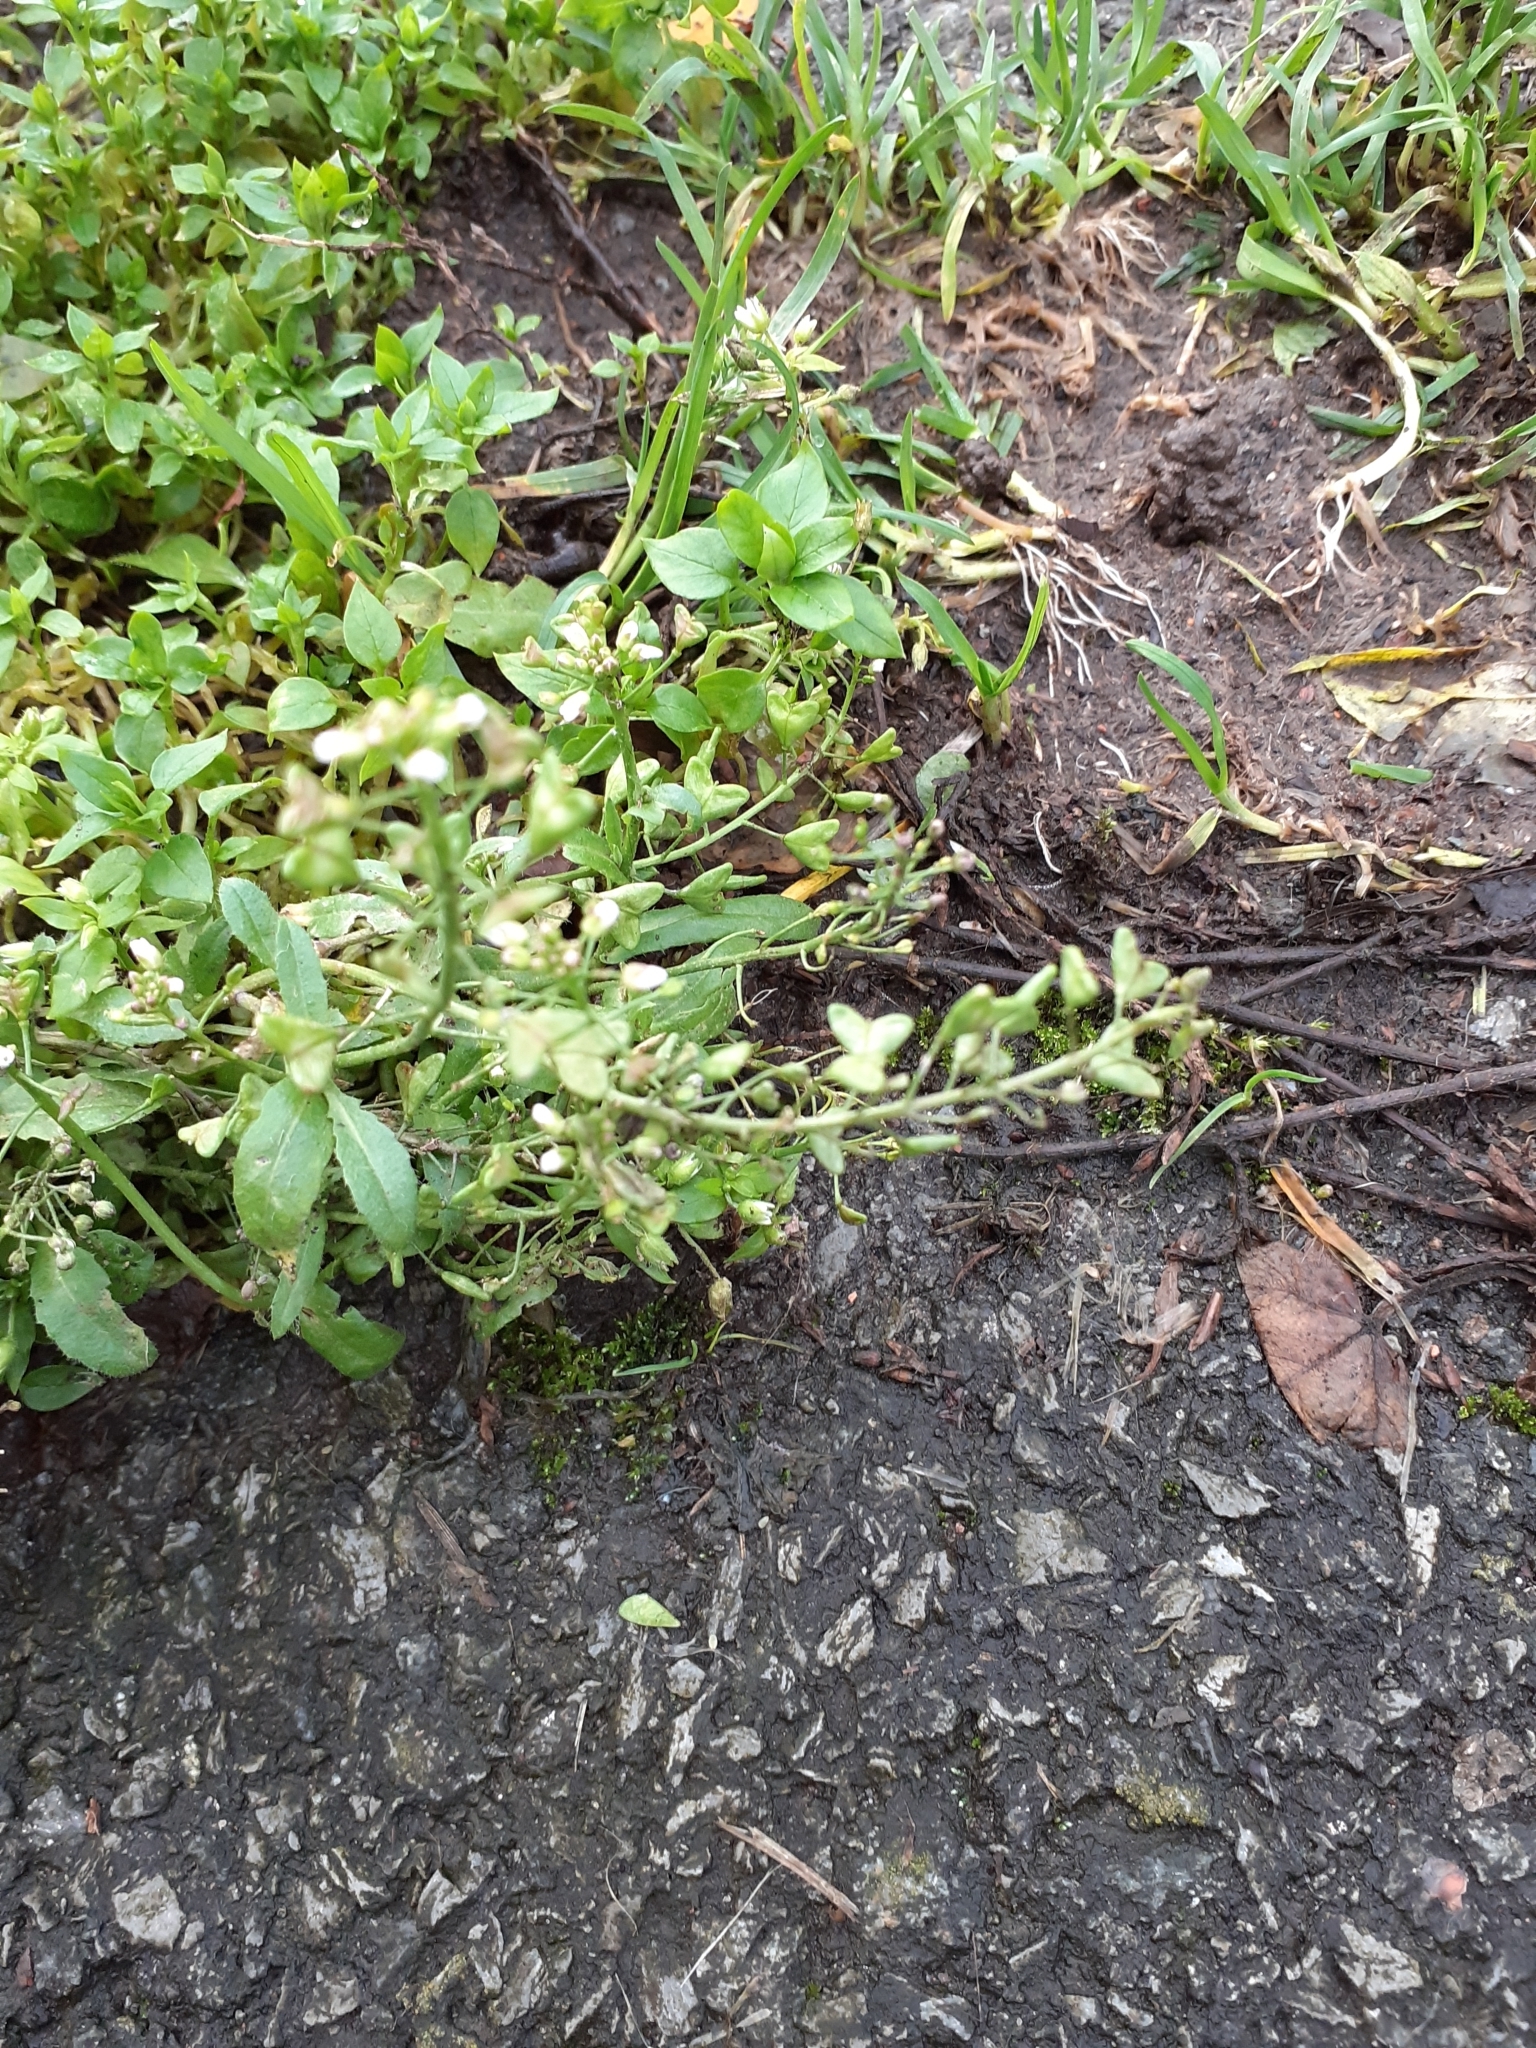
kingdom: Plantae
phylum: Tracheophyta
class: Magnoliopsida
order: Brassicales
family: Brassicaceae
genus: Capsella
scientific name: Capsella bursa-pastoris
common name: Shepherd's purse
